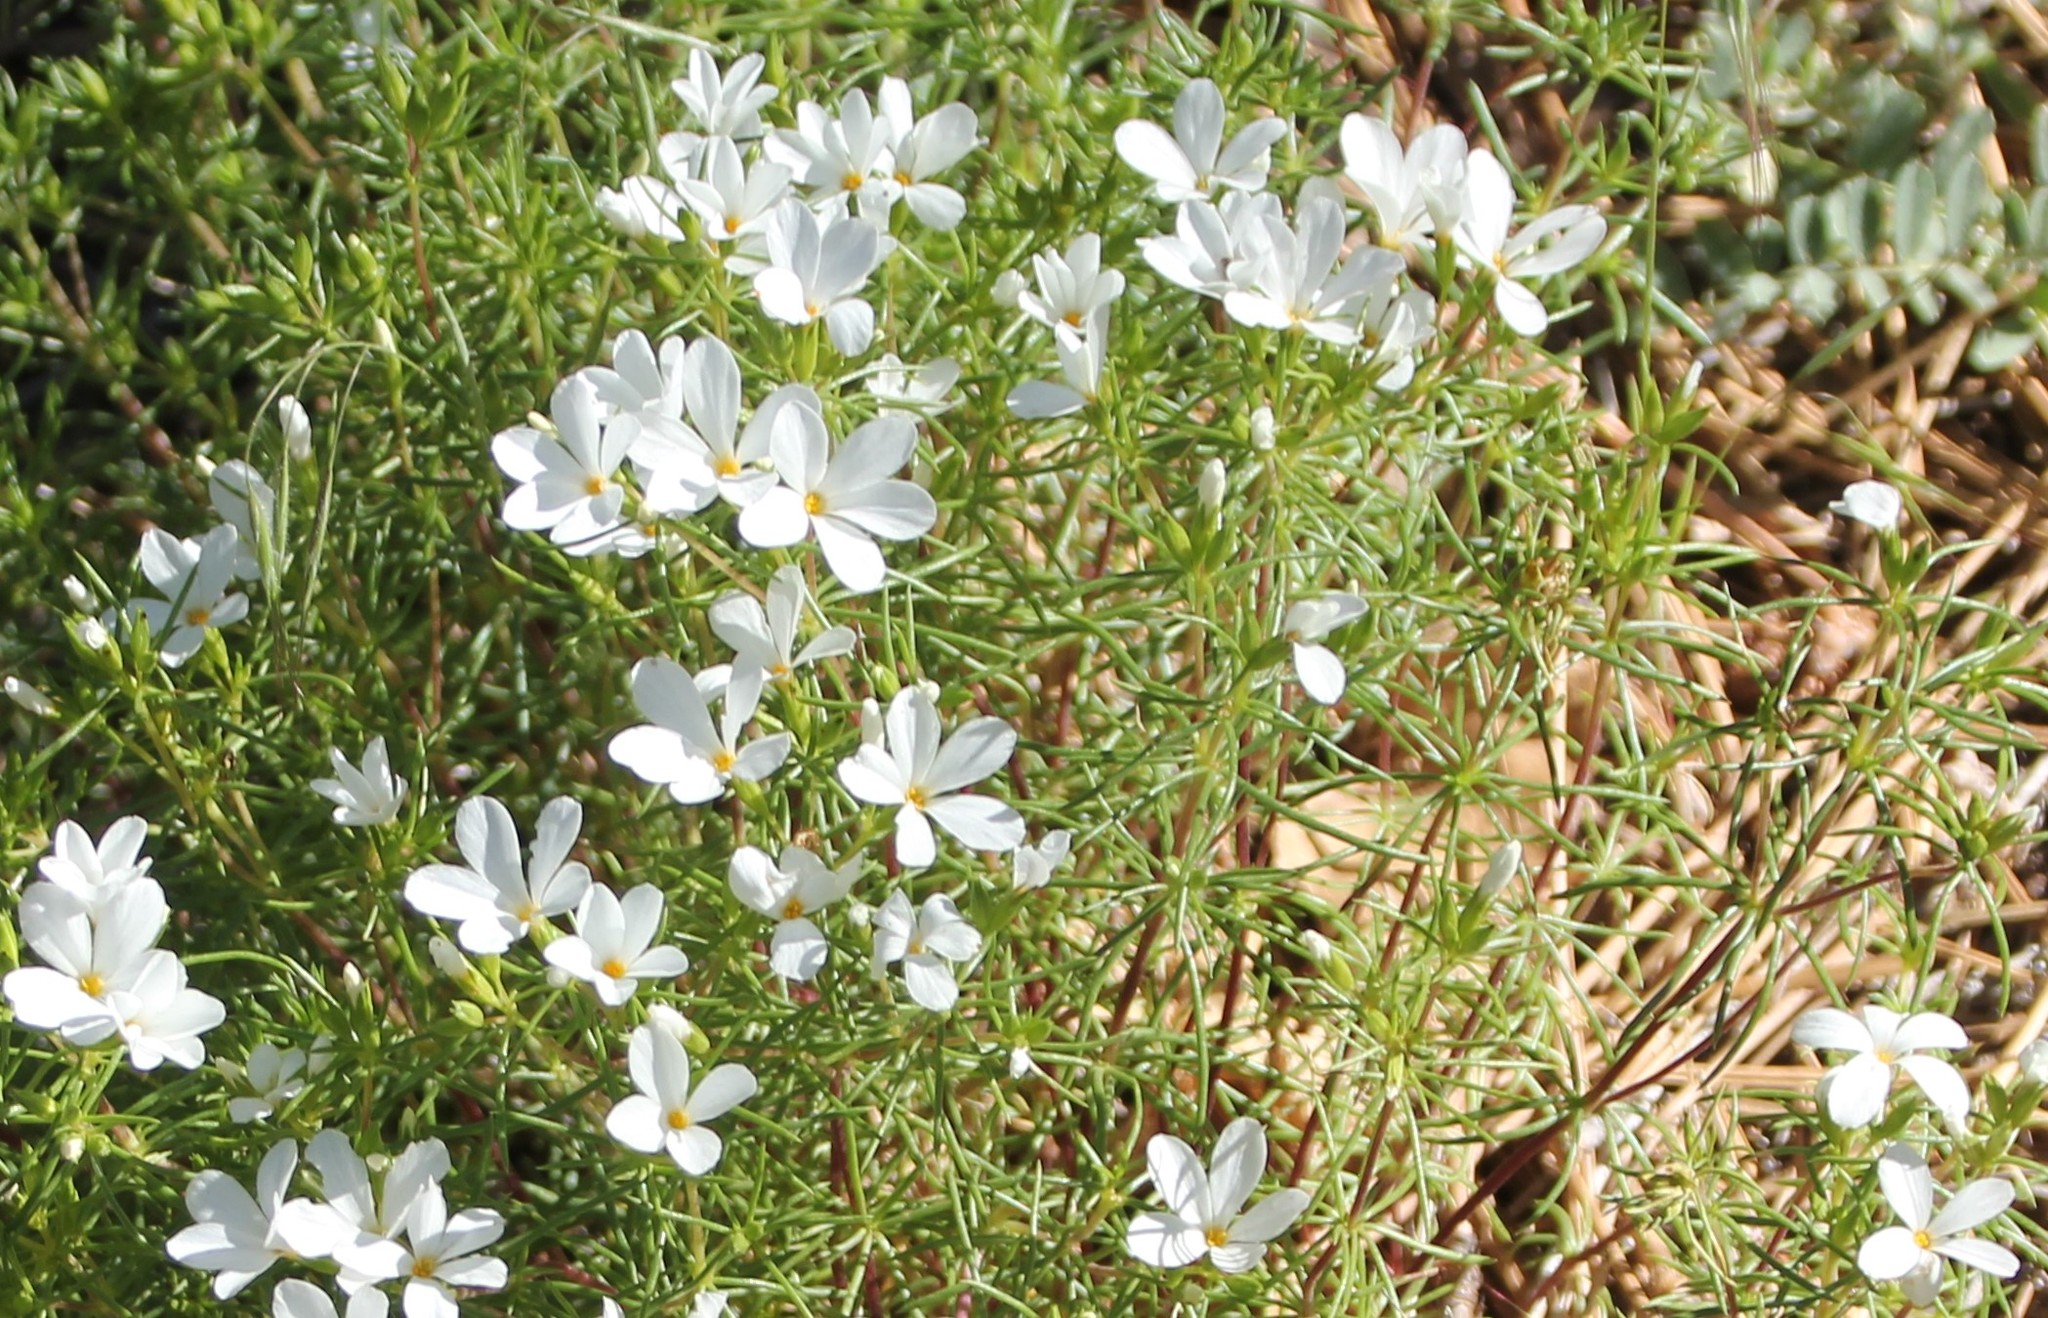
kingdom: Plantae
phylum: Tracheophyta
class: Magnoliopsida
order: Ericales
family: Polemoniaceae
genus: Leptosiphon
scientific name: Leptosiphon floribundum
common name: Many-flower linanthus
